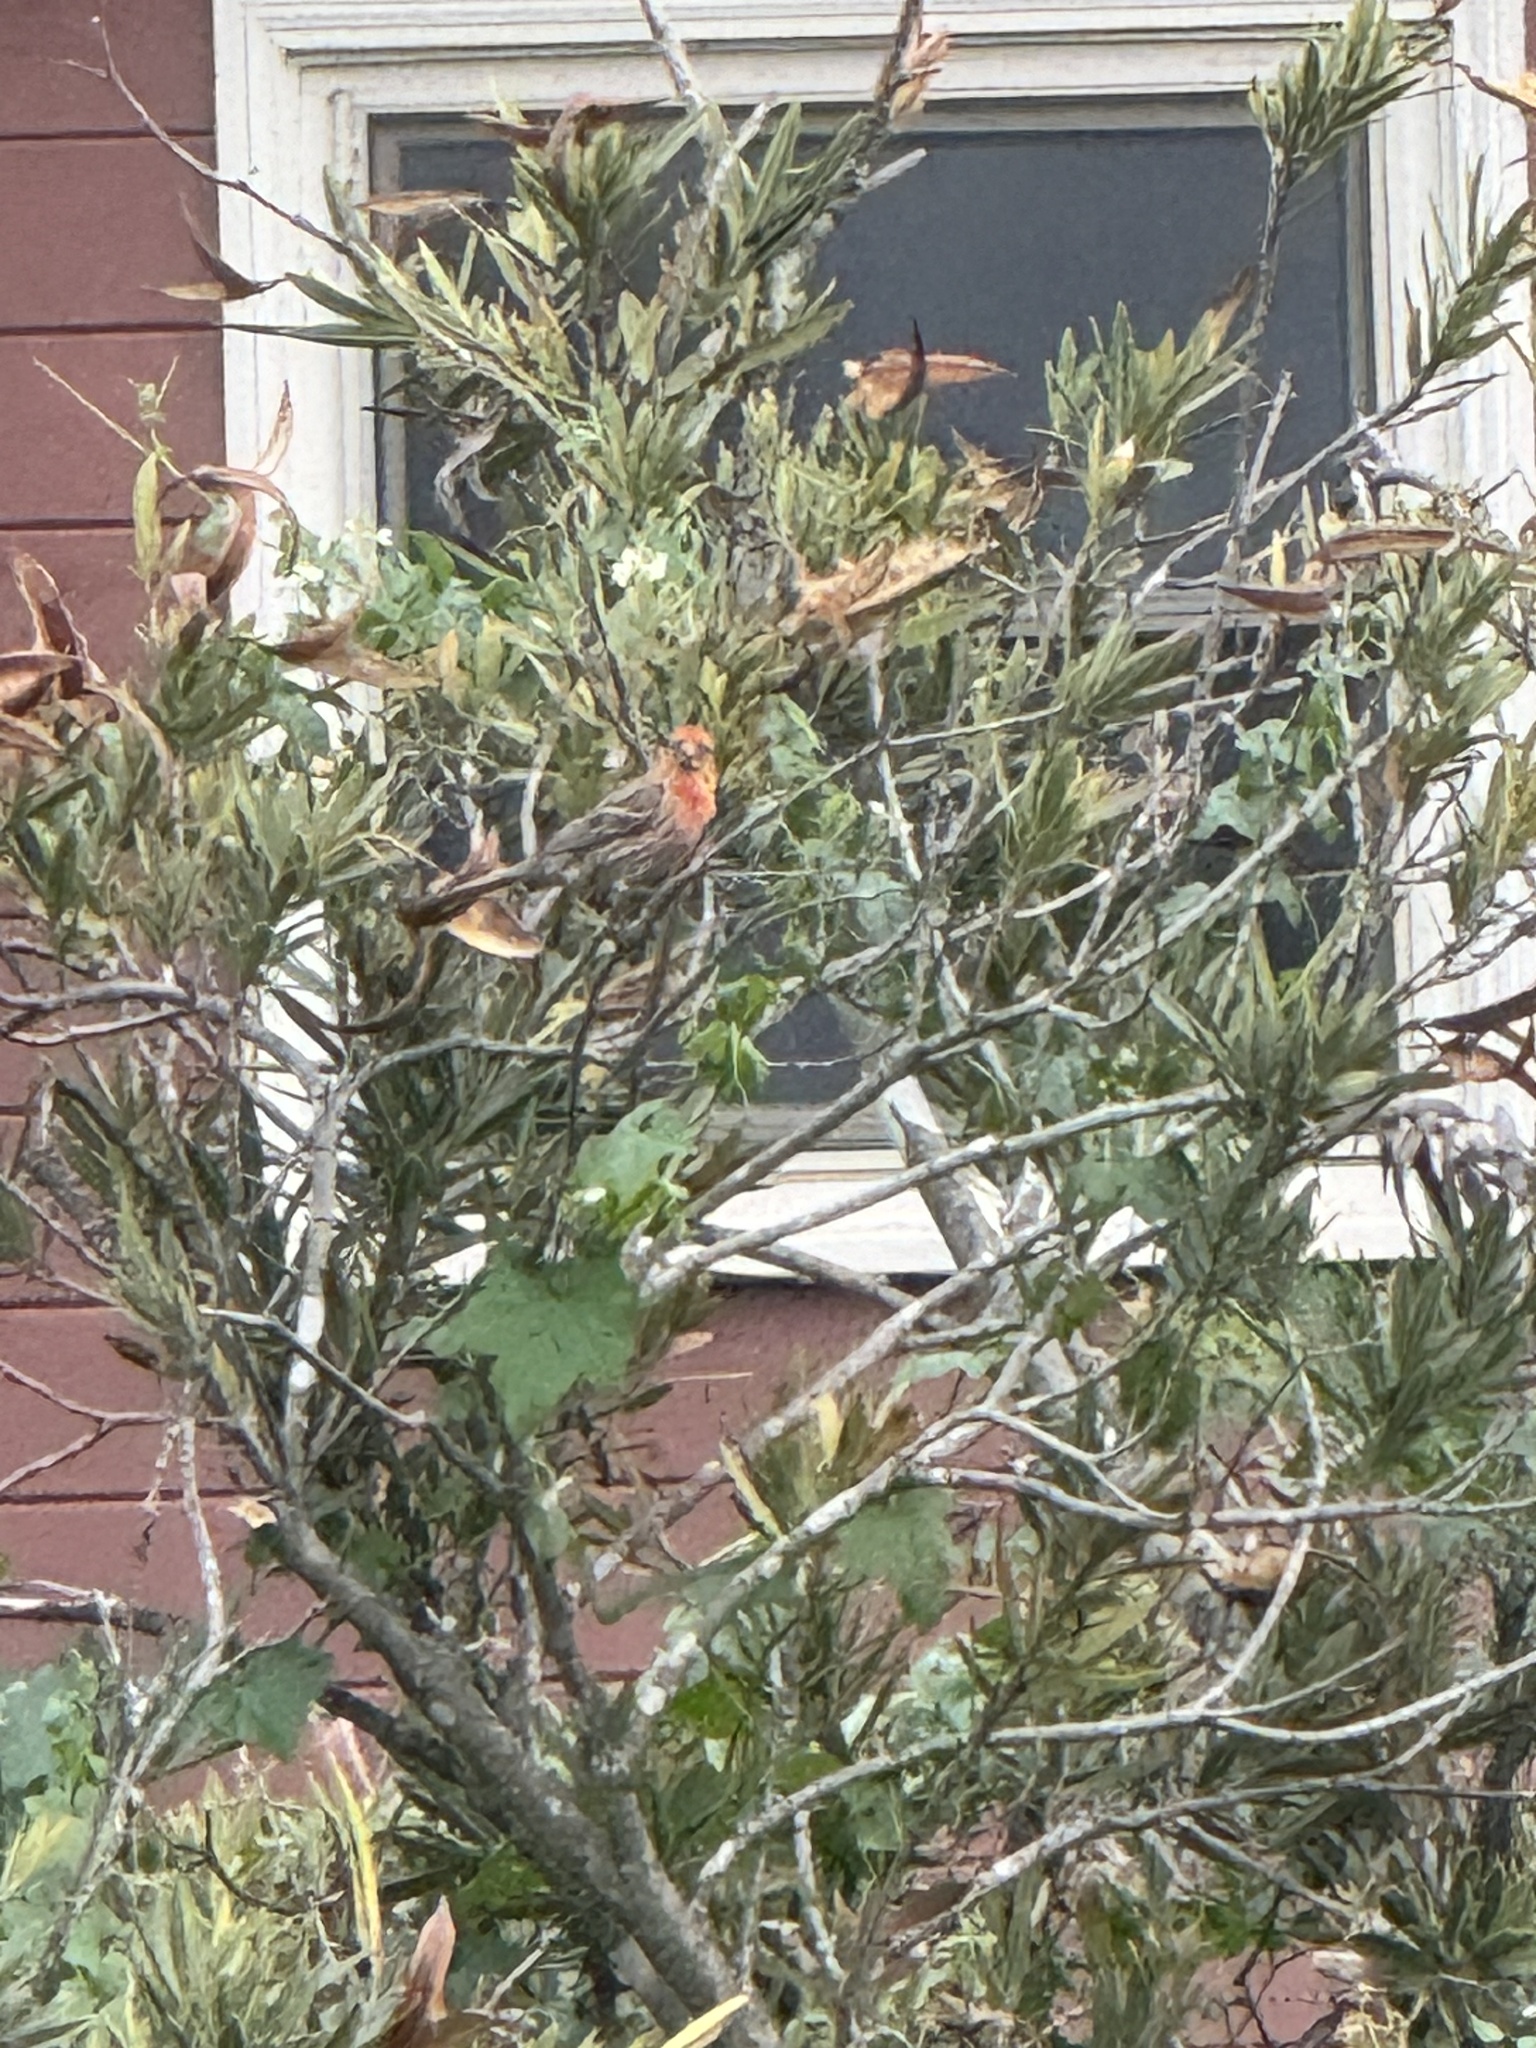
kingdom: Animalia
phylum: Chordata
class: Aves
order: Passeriformes
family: Fringillidae
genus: Haemorhous
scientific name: Haemorhous mexicanus
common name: House finch
